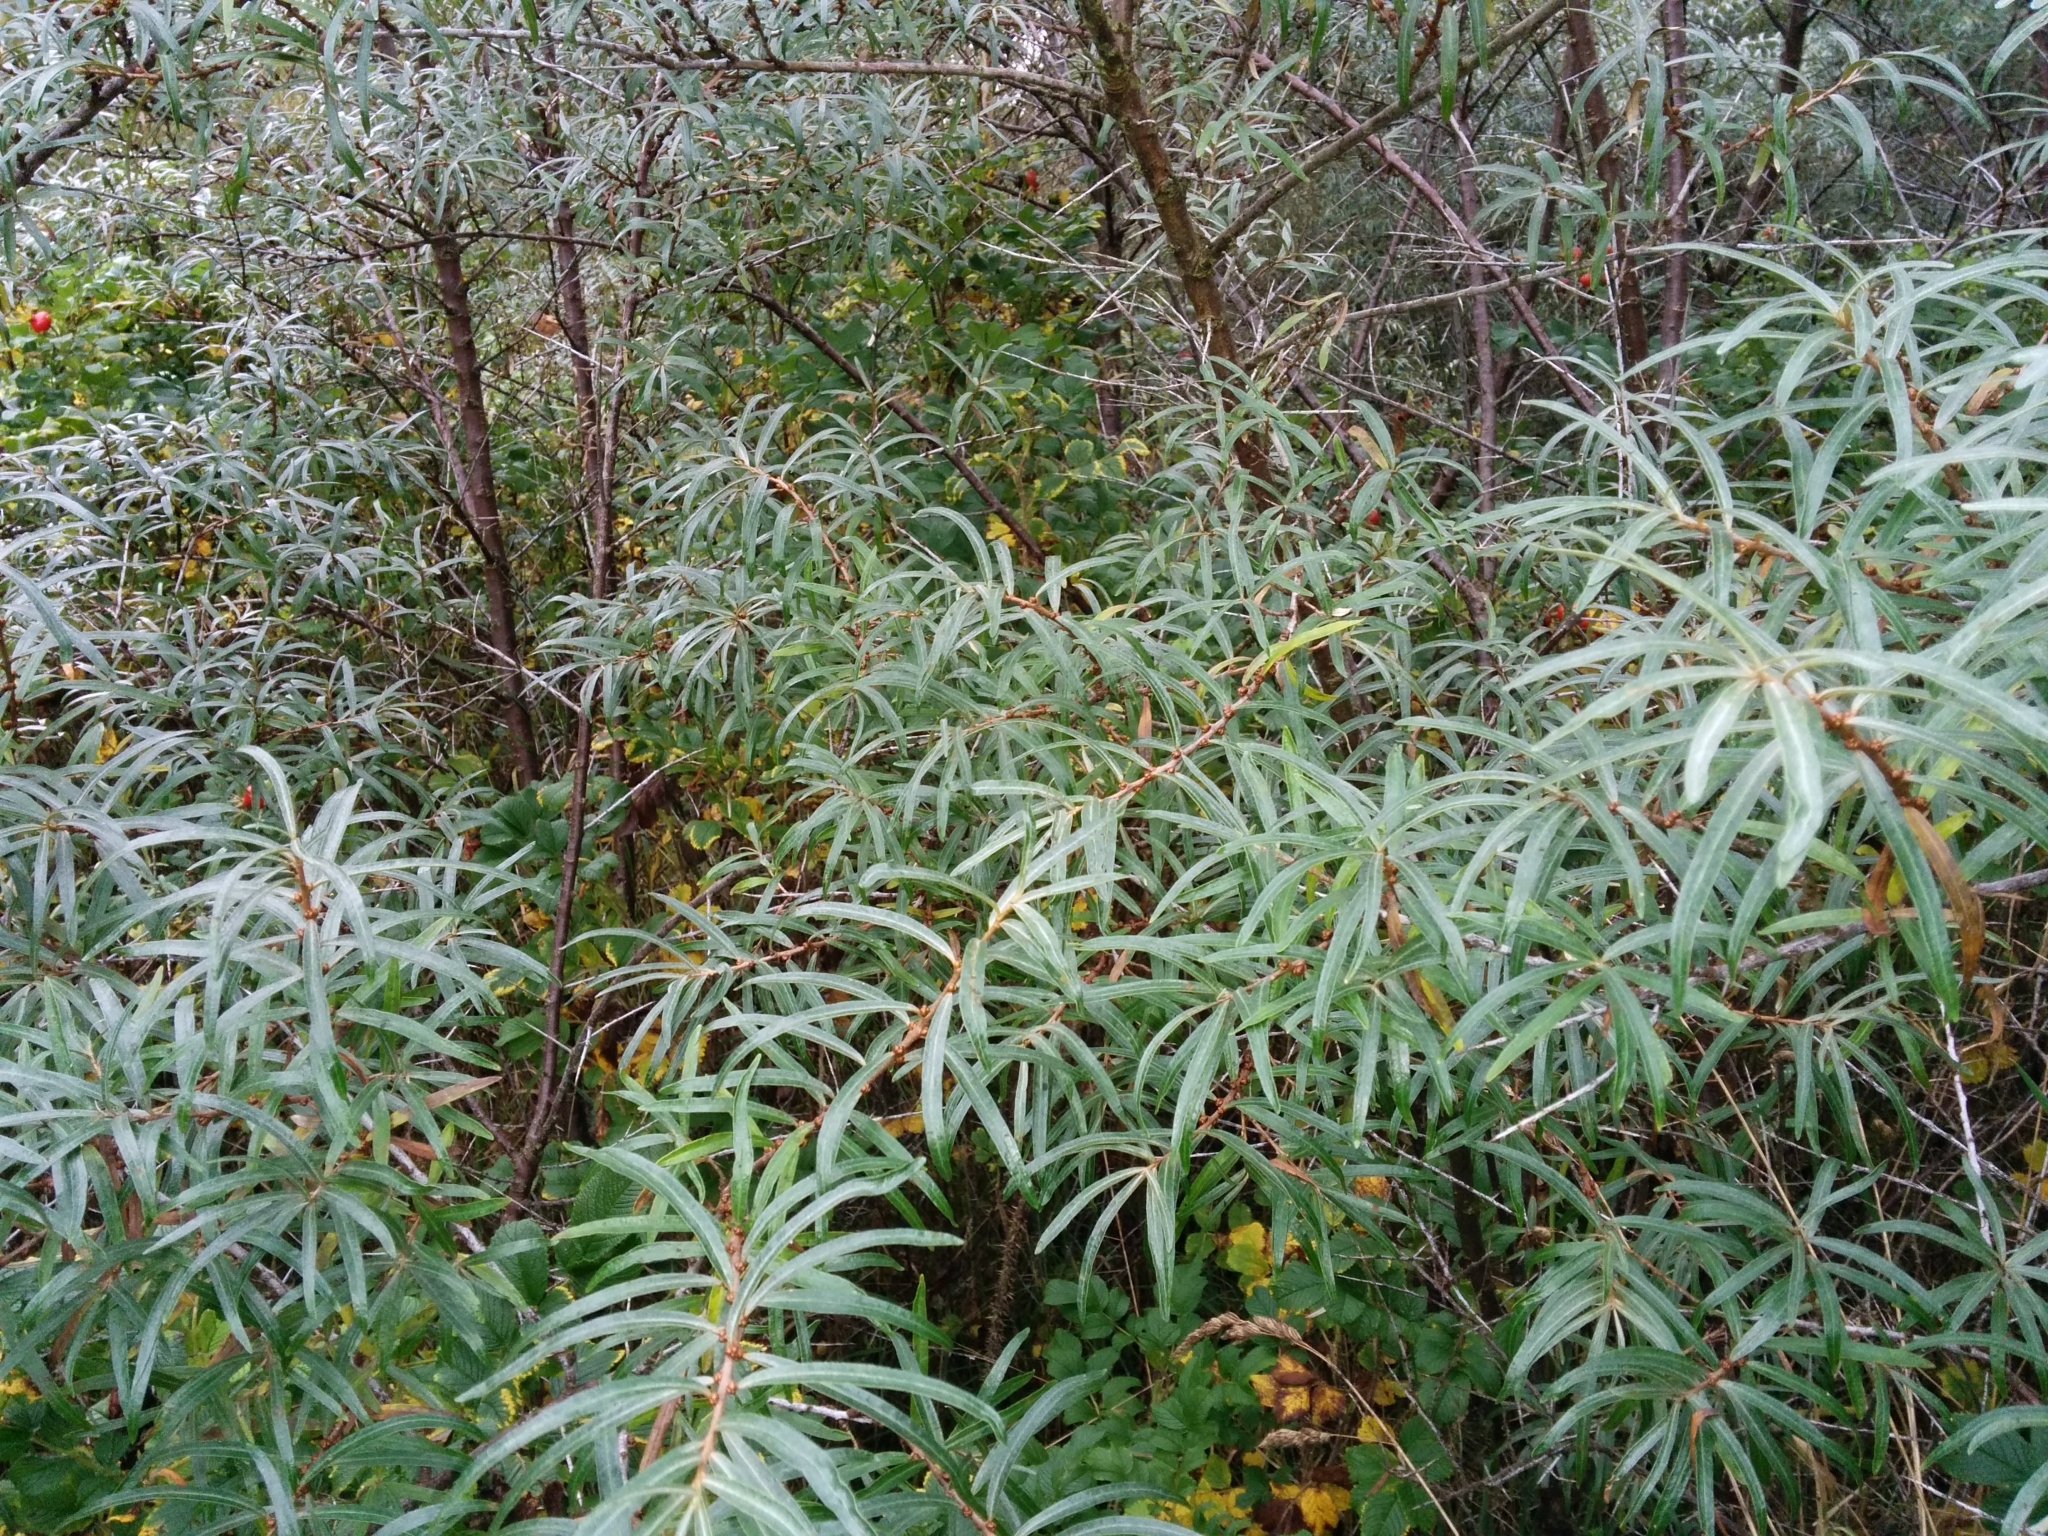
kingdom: Plantae
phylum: Tracheophyta
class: Magnoliopsida
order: Rosales
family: Elaeagnaceae
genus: Hippophae
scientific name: Hippophae rhamnoides
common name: Sea-buckthorn
